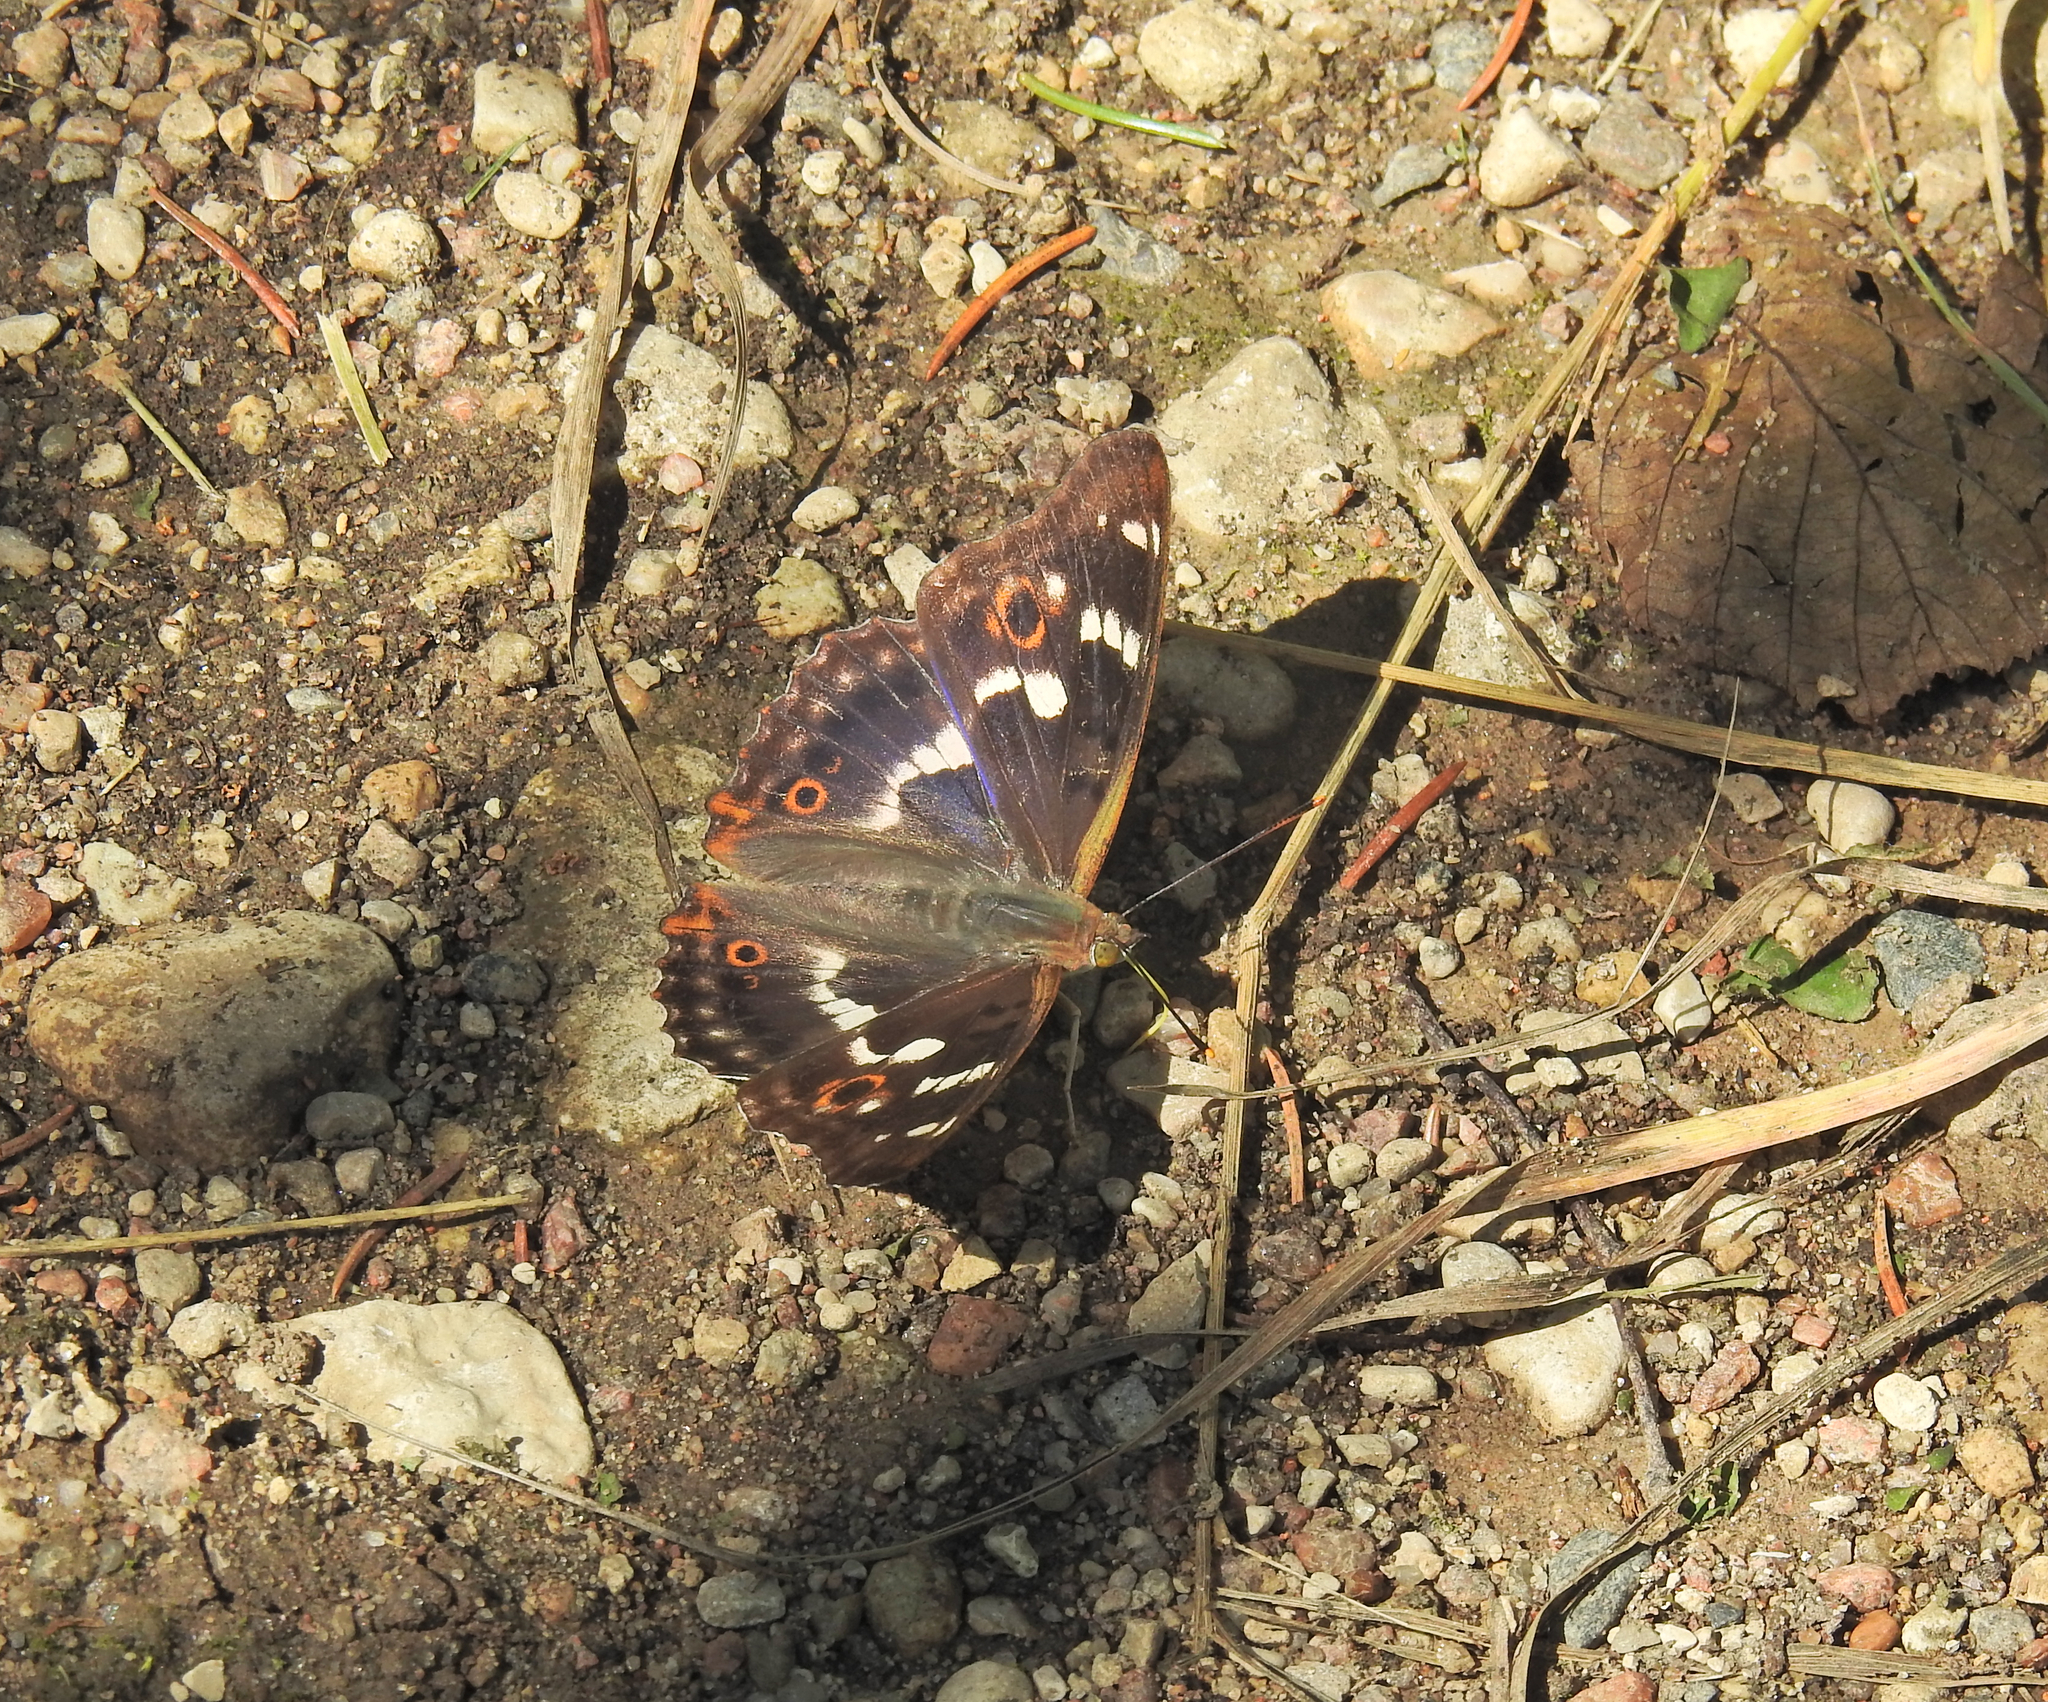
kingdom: Animalia
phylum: Arthropoda
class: Insecta
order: Lepidoptera
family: Nymphalidae
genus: Apatura
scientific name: Apatura ilia
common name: Lesser purple emperor
